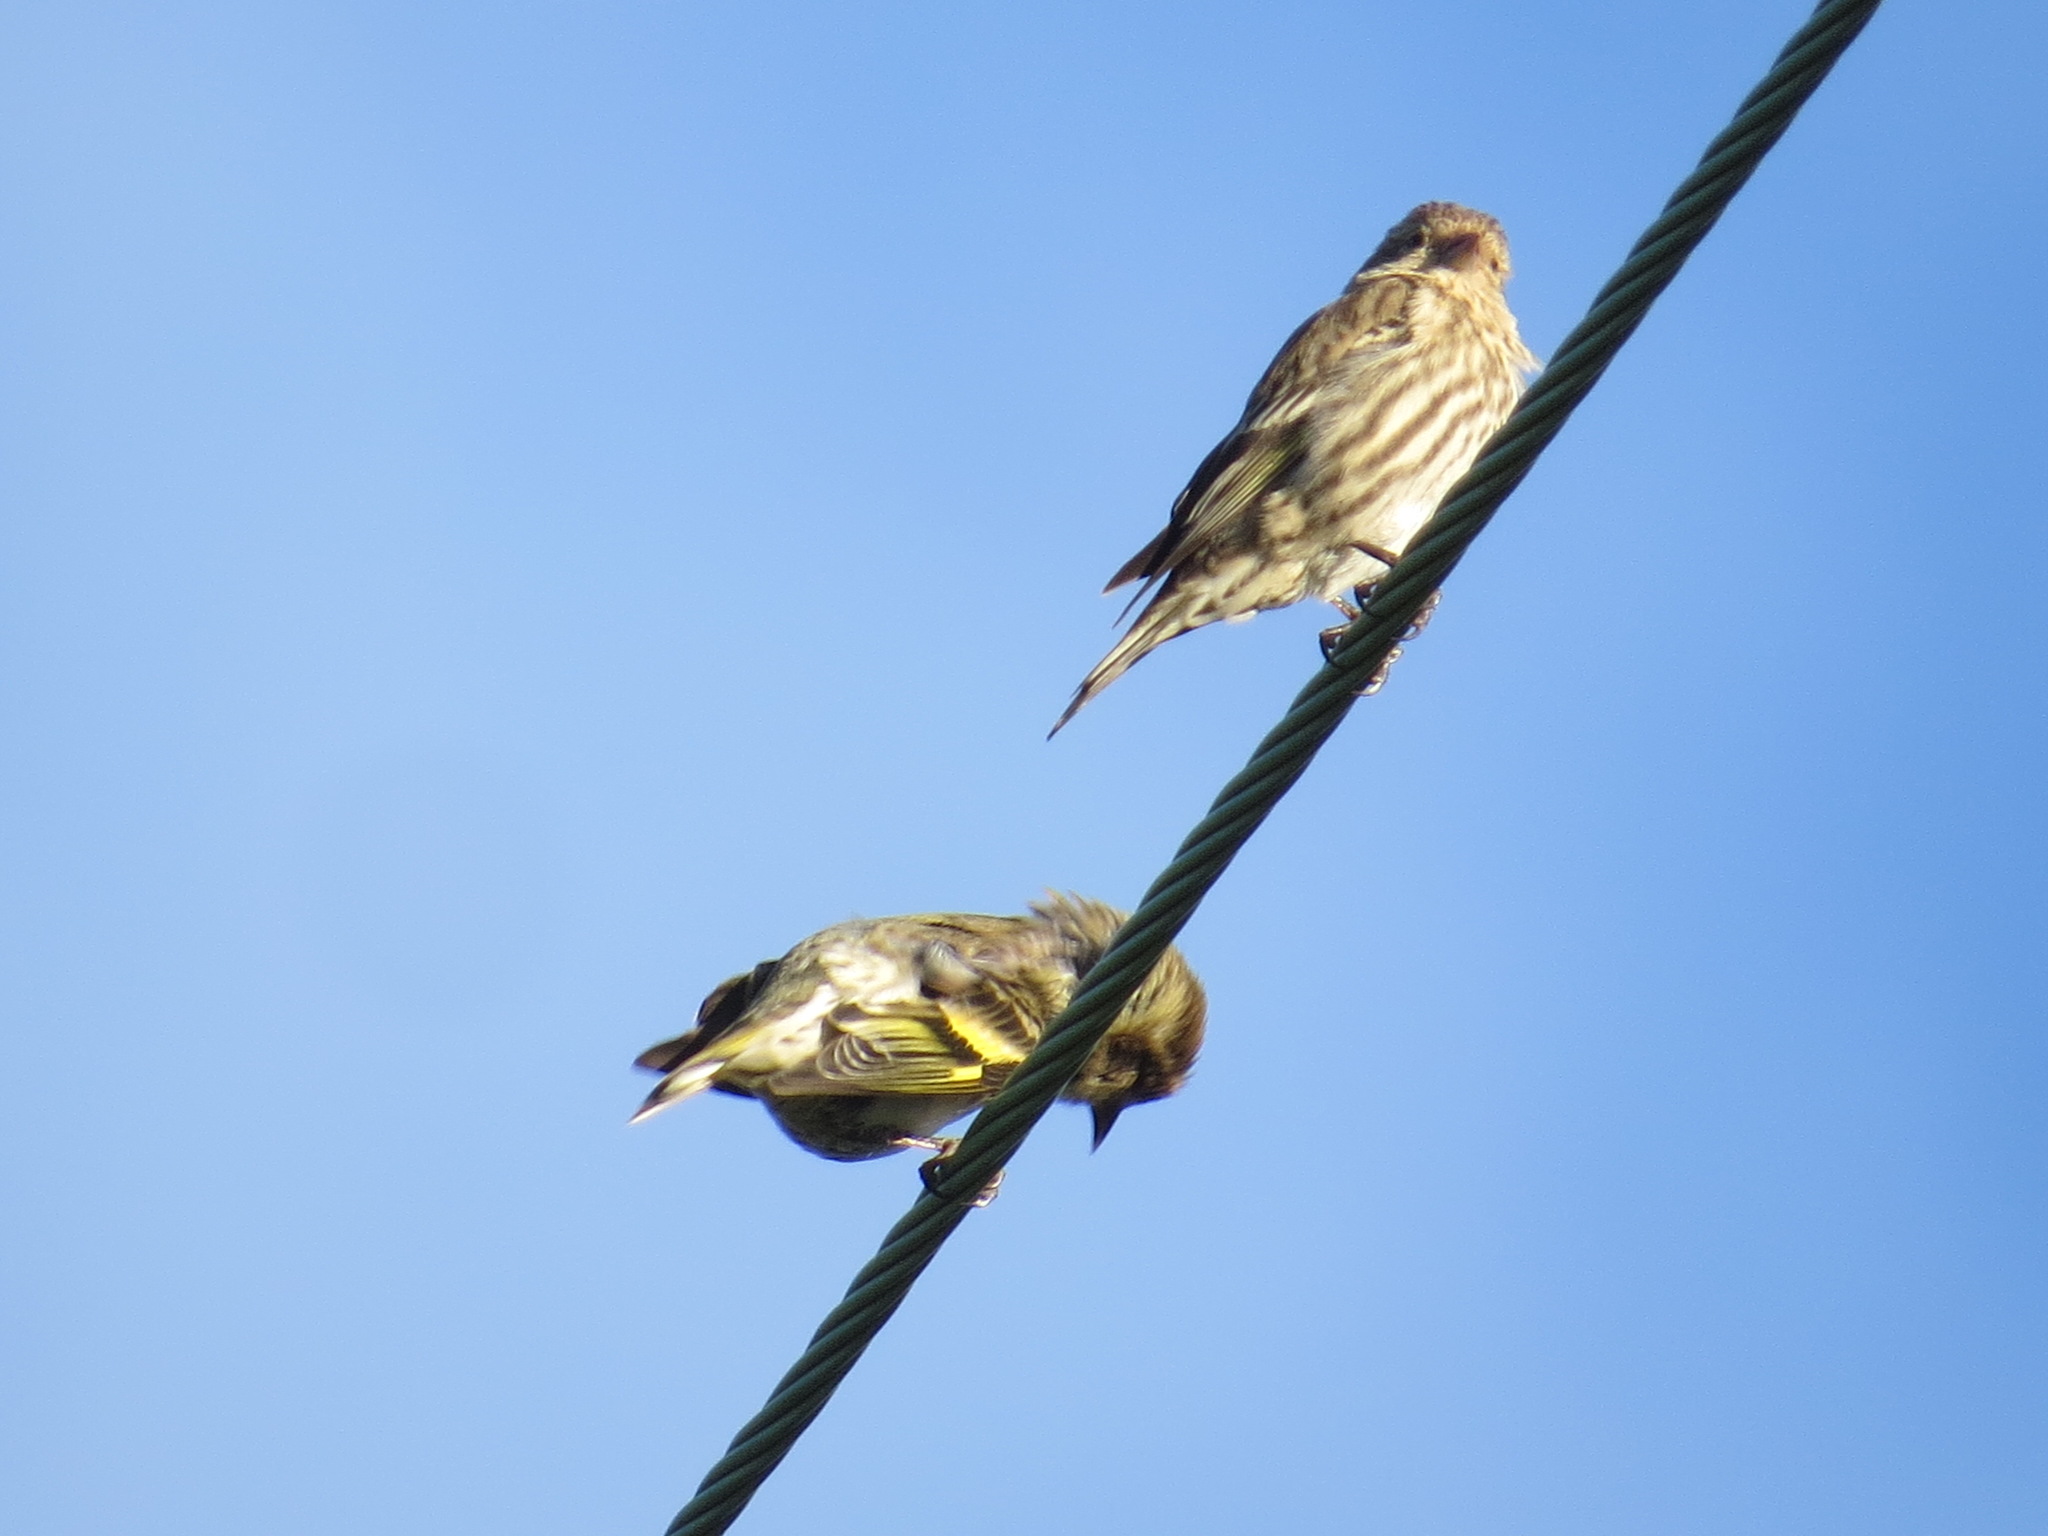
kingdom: Animalia
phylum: Chordata
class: Aves
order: Passeriformes
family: Fringillidae
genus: Spinus
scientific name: Spinus pinus
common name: Pine siskin
